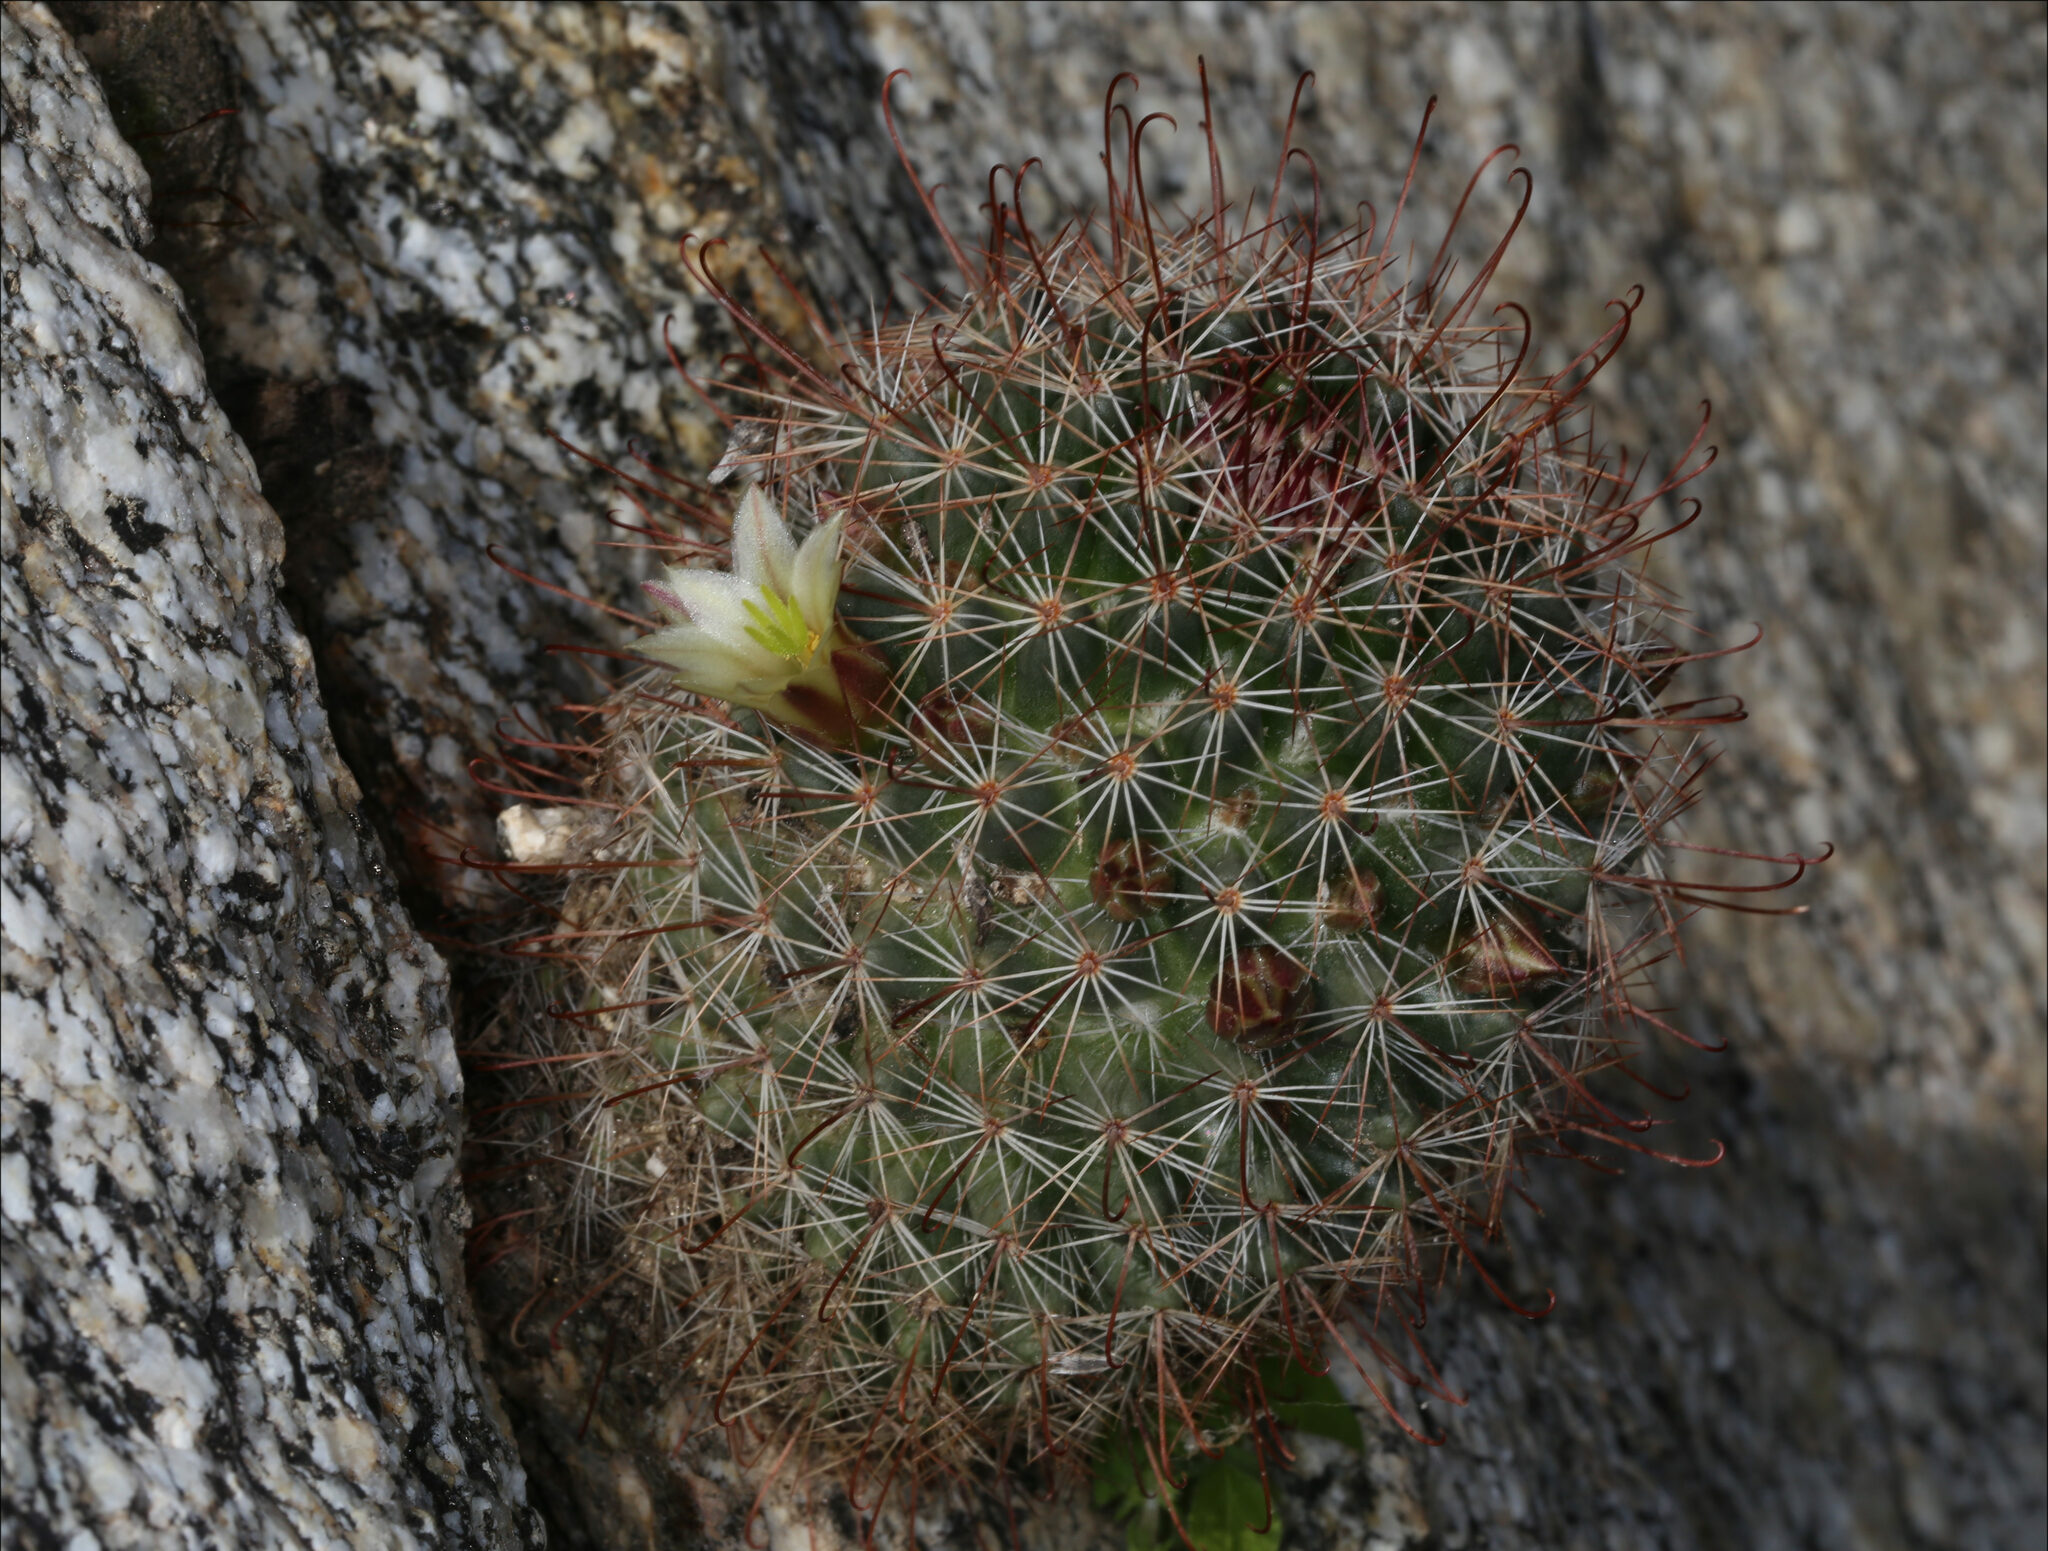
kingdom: Plantae
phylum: Tracheophyta
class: Magnoliopsida
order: Caryophyllales
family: Cactaceae
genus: Cochemiea
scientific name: Cochemiea dioica
